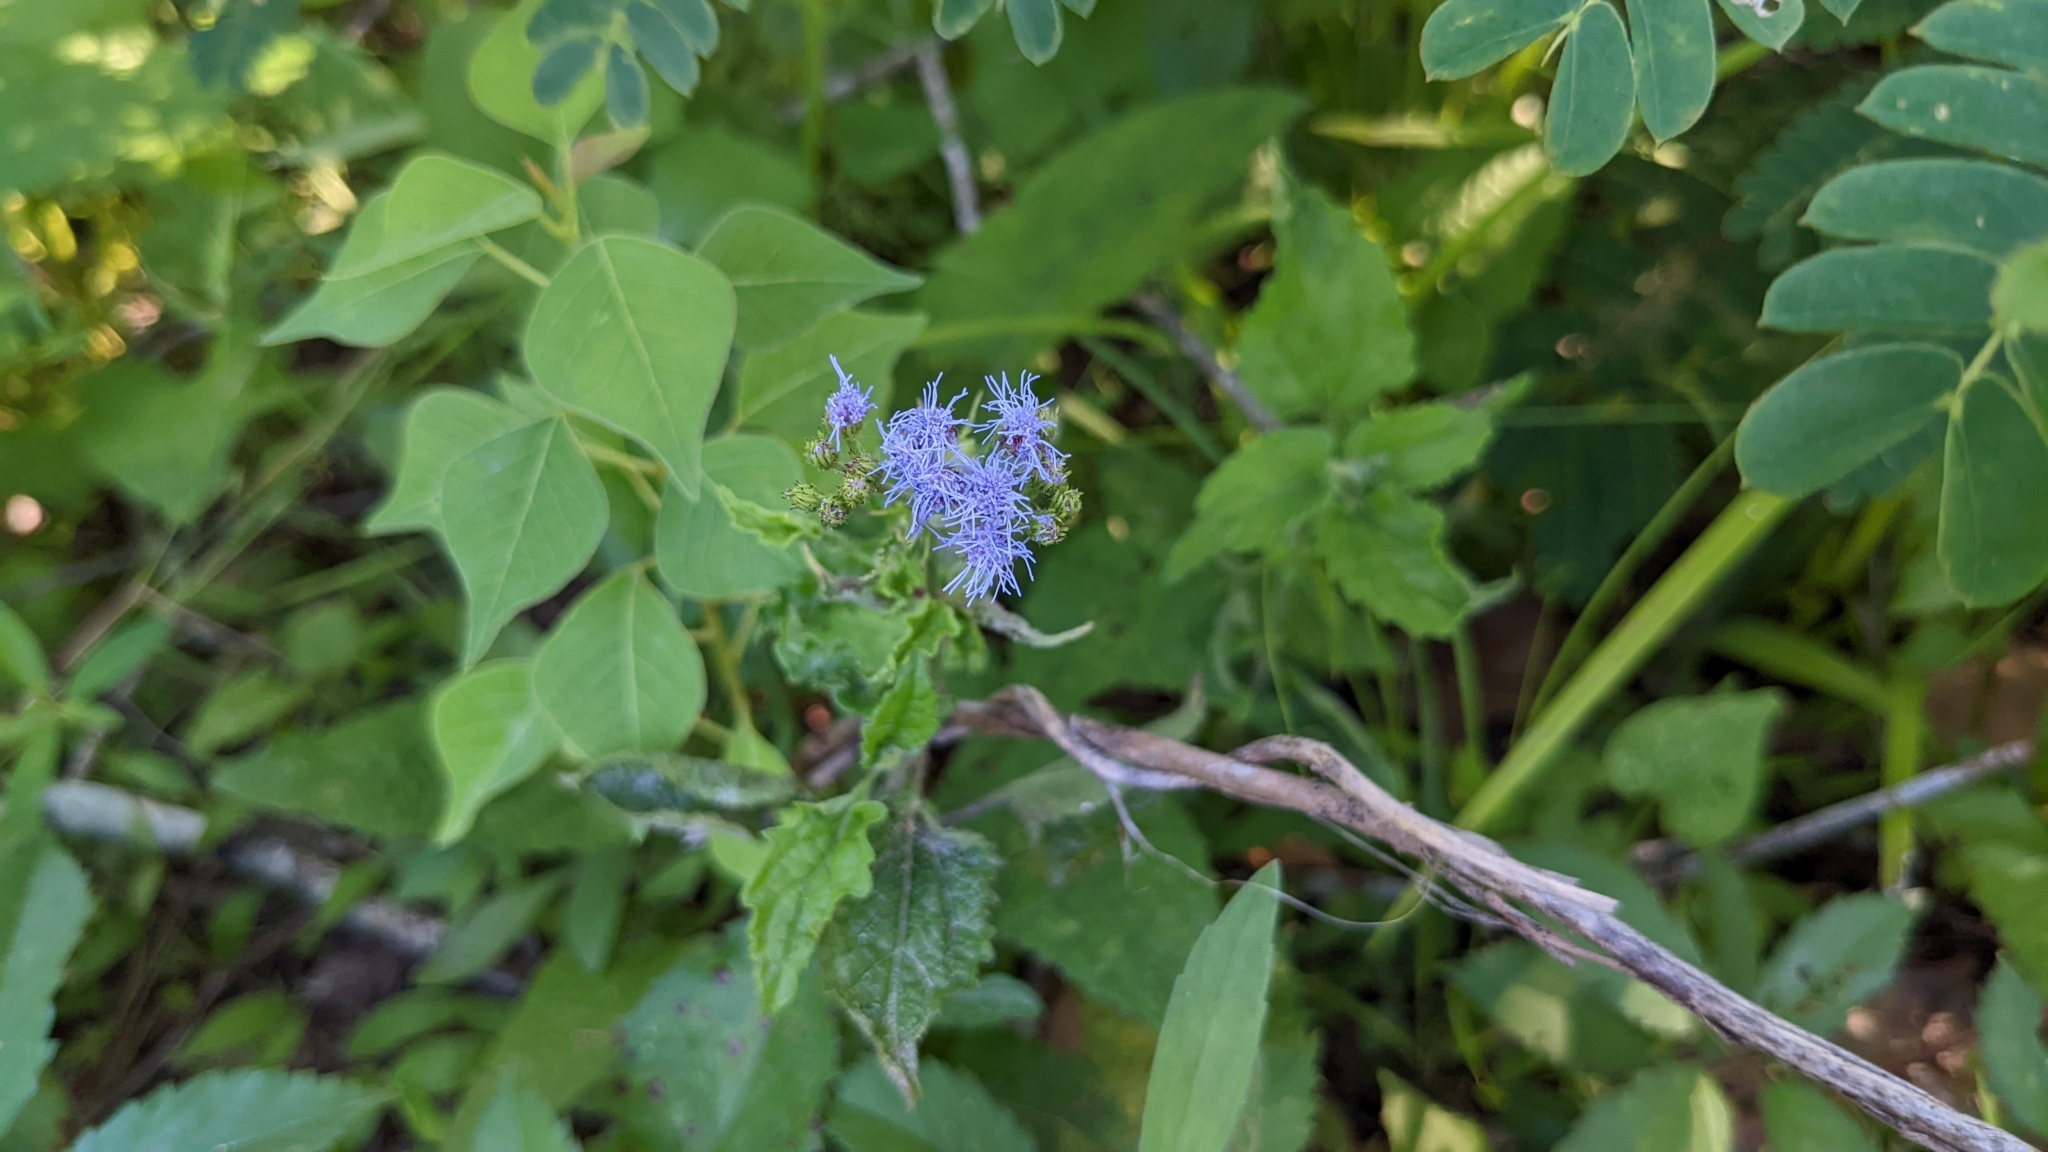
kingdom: Plantae
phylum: Tracheophyta
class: Magnoliopsida
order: Asterales
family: Asteraceae
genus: Conoclinium
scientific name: Conoclinium coelestinum
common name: Blue mistflower
